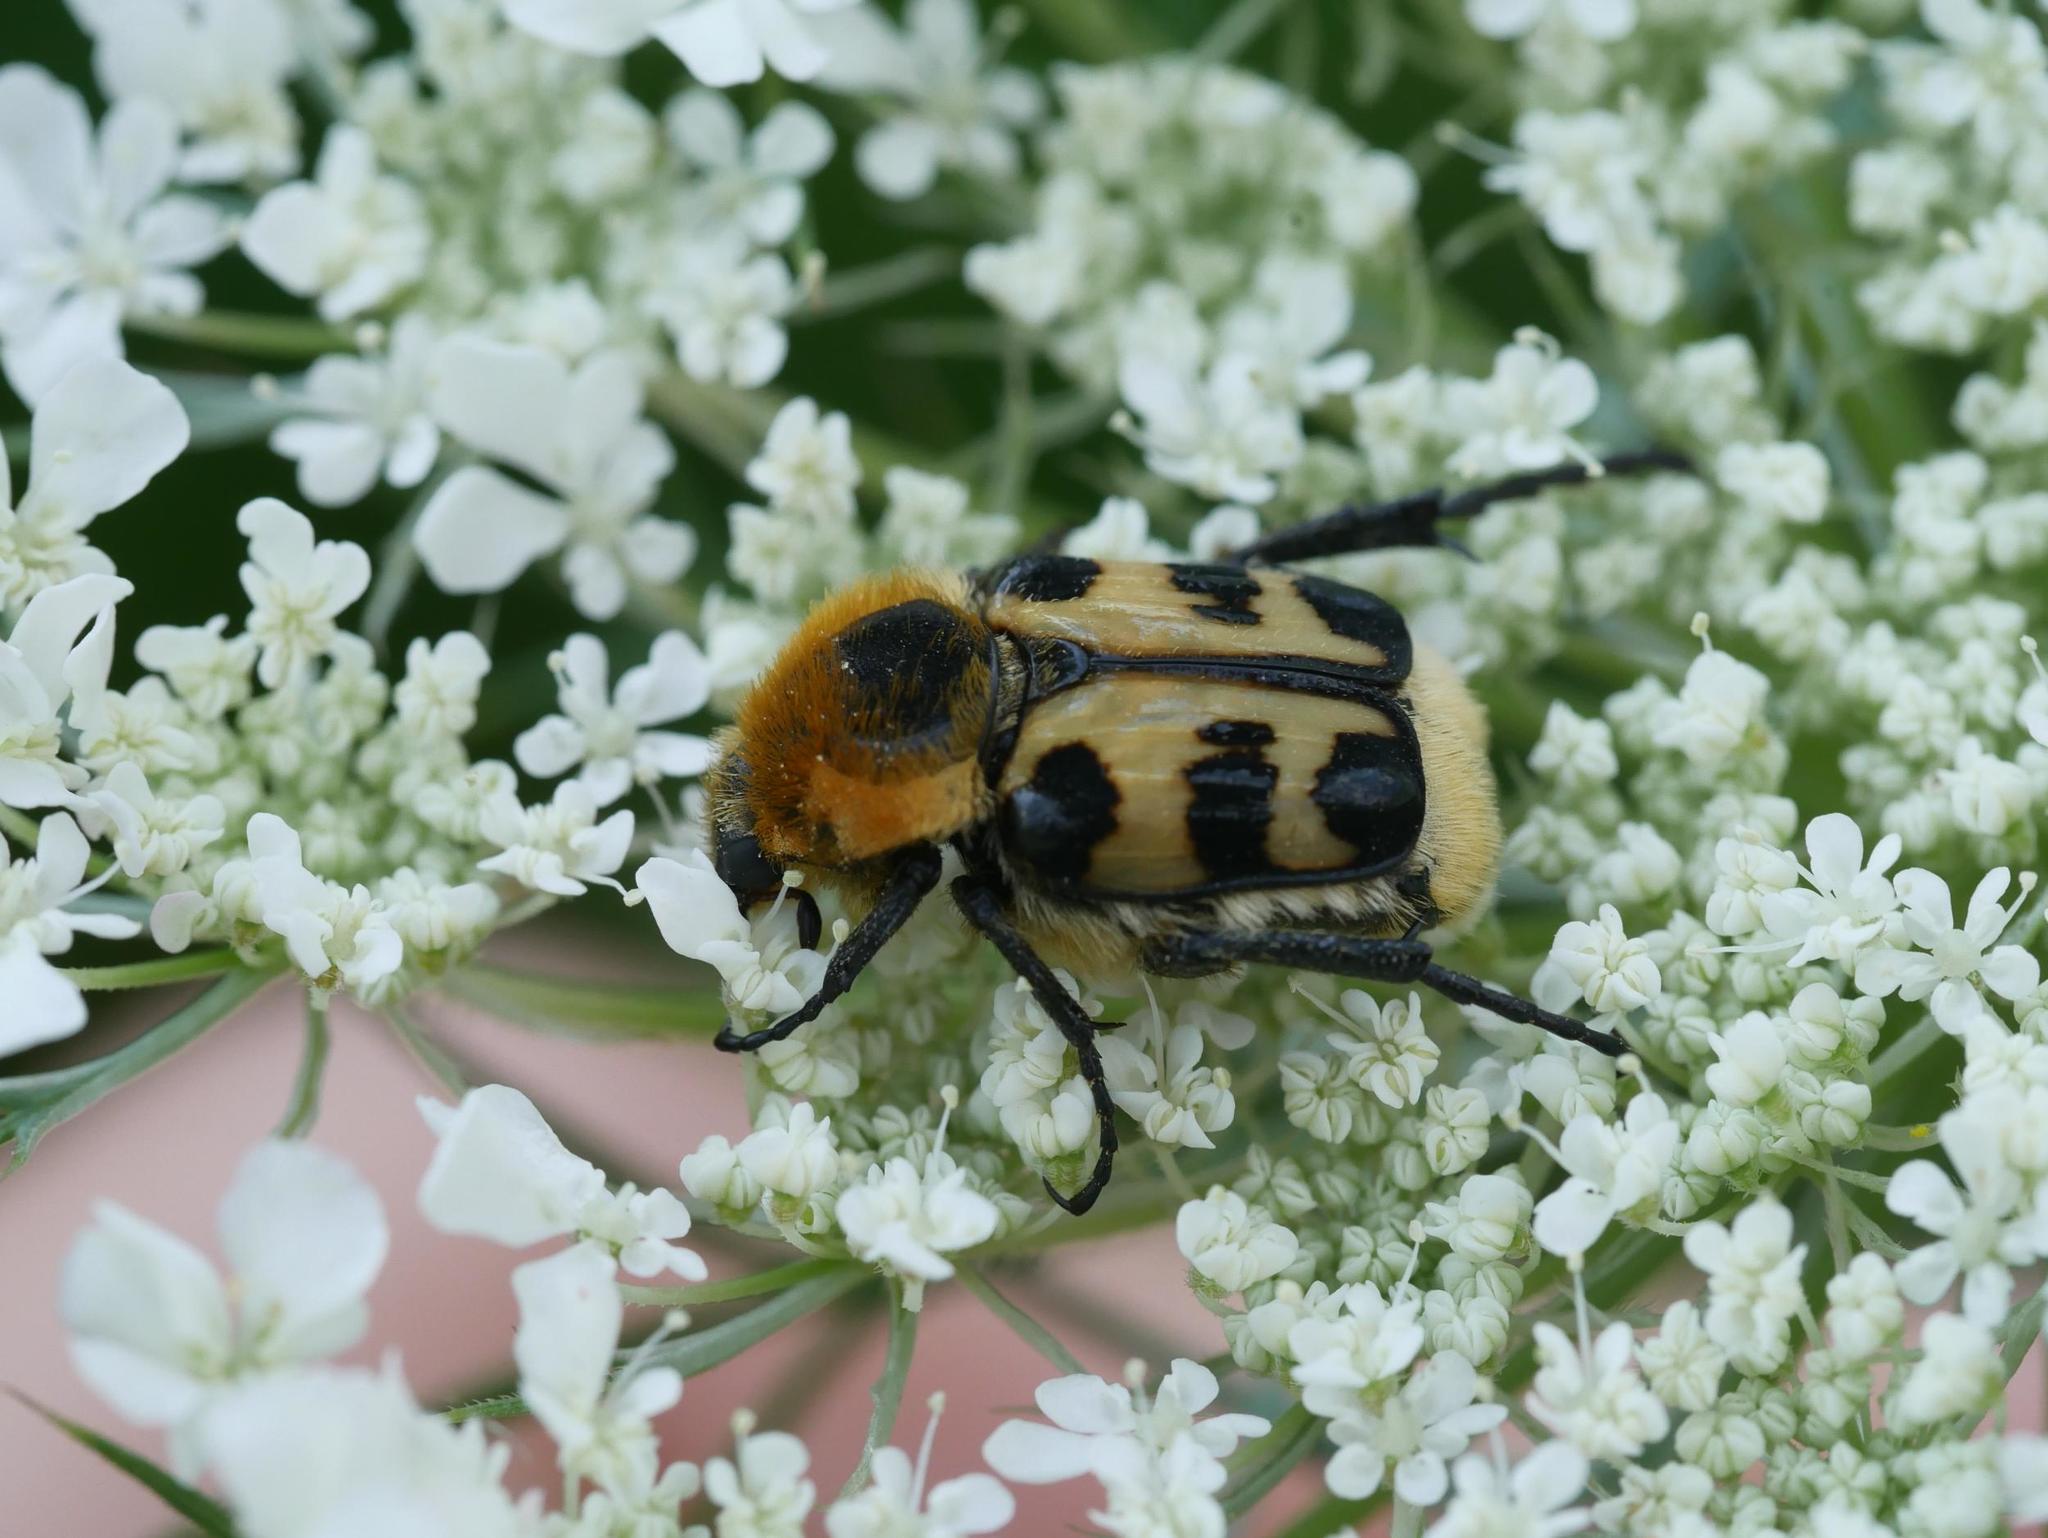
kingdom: Animalia
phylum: Arthropoda
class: Insecta
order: Coleoptera
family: Scarabaeidae
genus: Trichius
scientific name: Trichius gallicus
